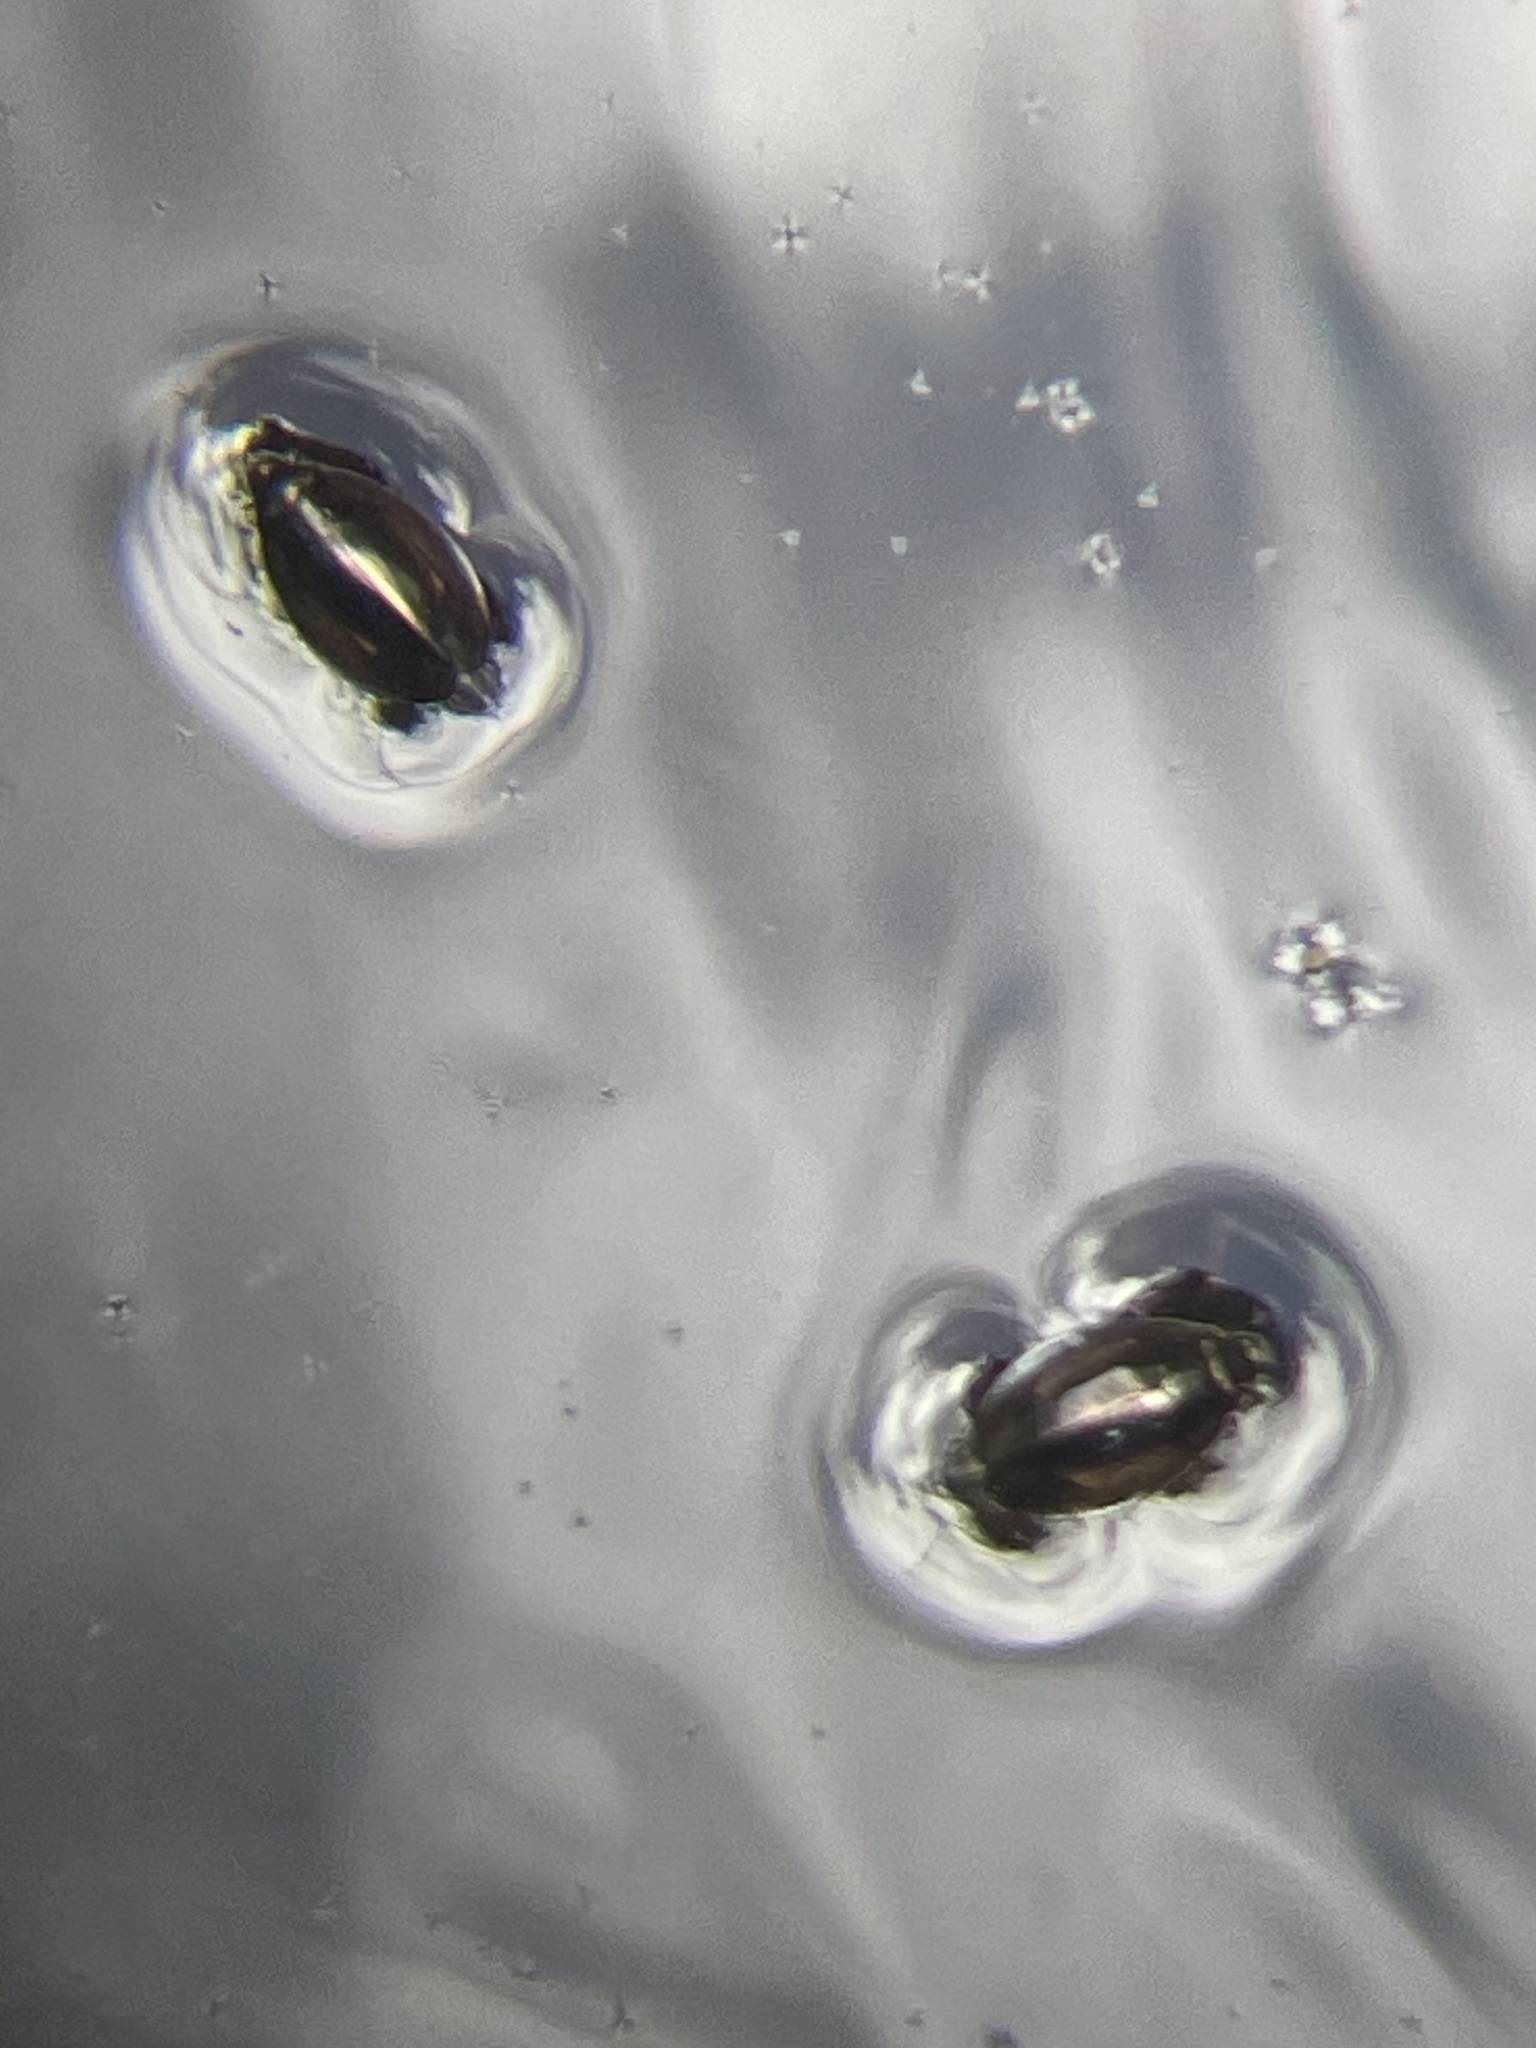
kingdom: Animalia
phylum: Arthropoda
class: Insecta
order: Coleoptera
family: Gyrinidae
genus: Dineutus
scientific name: Dineutus
